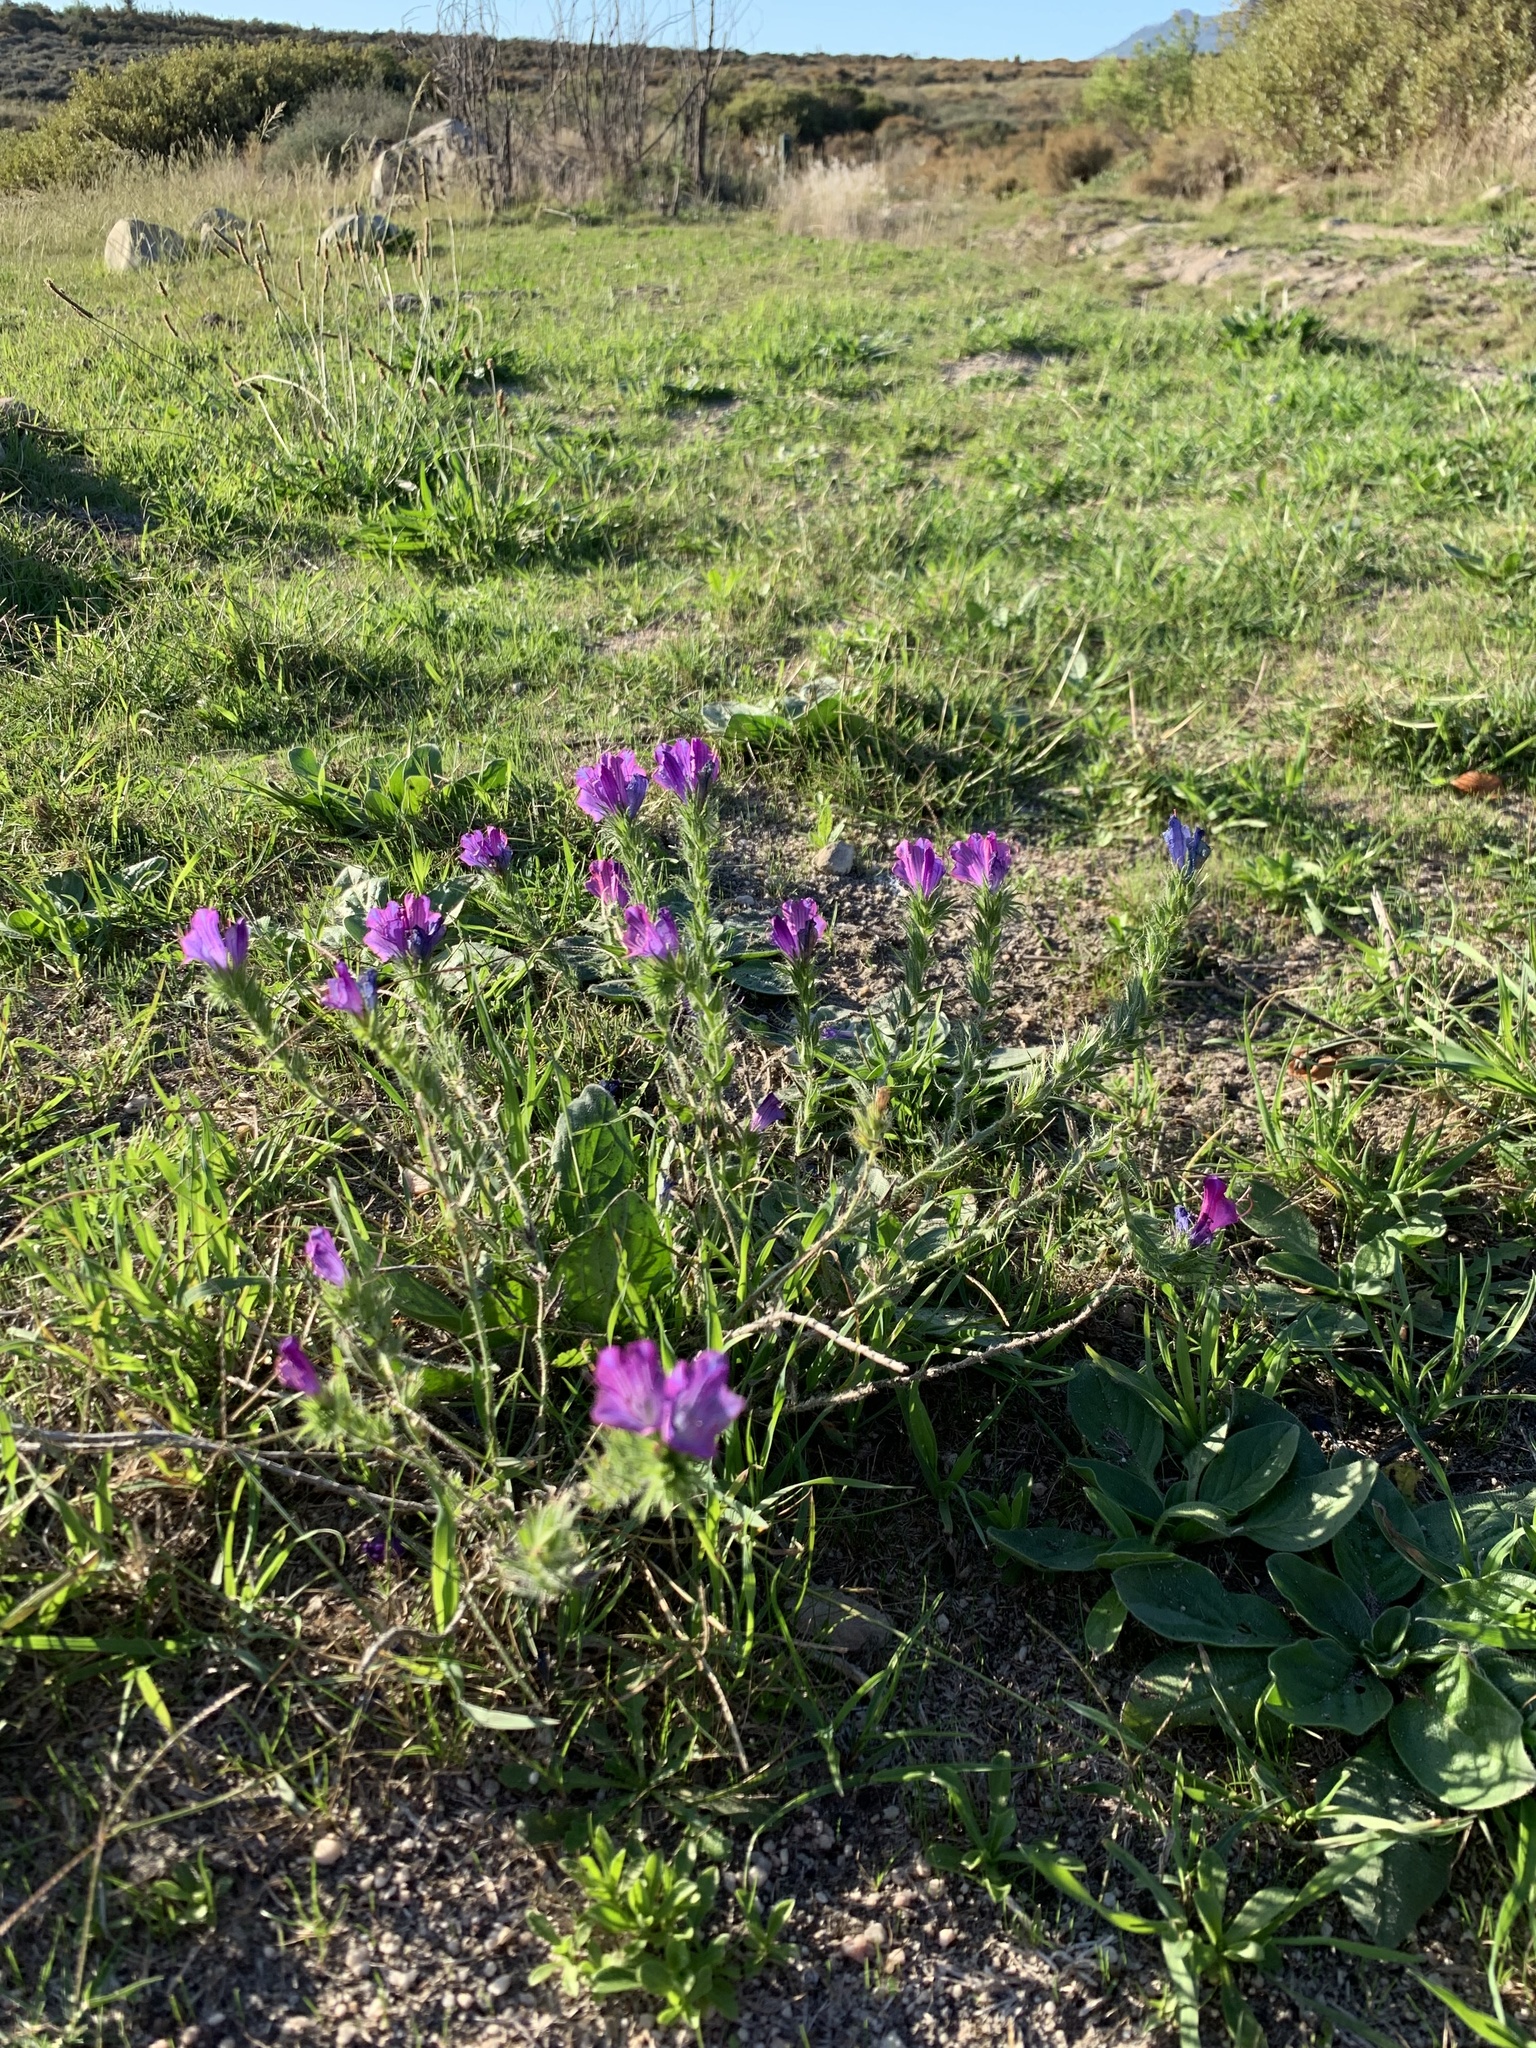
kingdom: Plantae
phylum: Tracheophyta
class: Magnoliopsida
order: Boraginales
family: Boraginaceae
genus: Echium
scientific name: Echium plantagineum
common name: Purple viper's-bugloss
